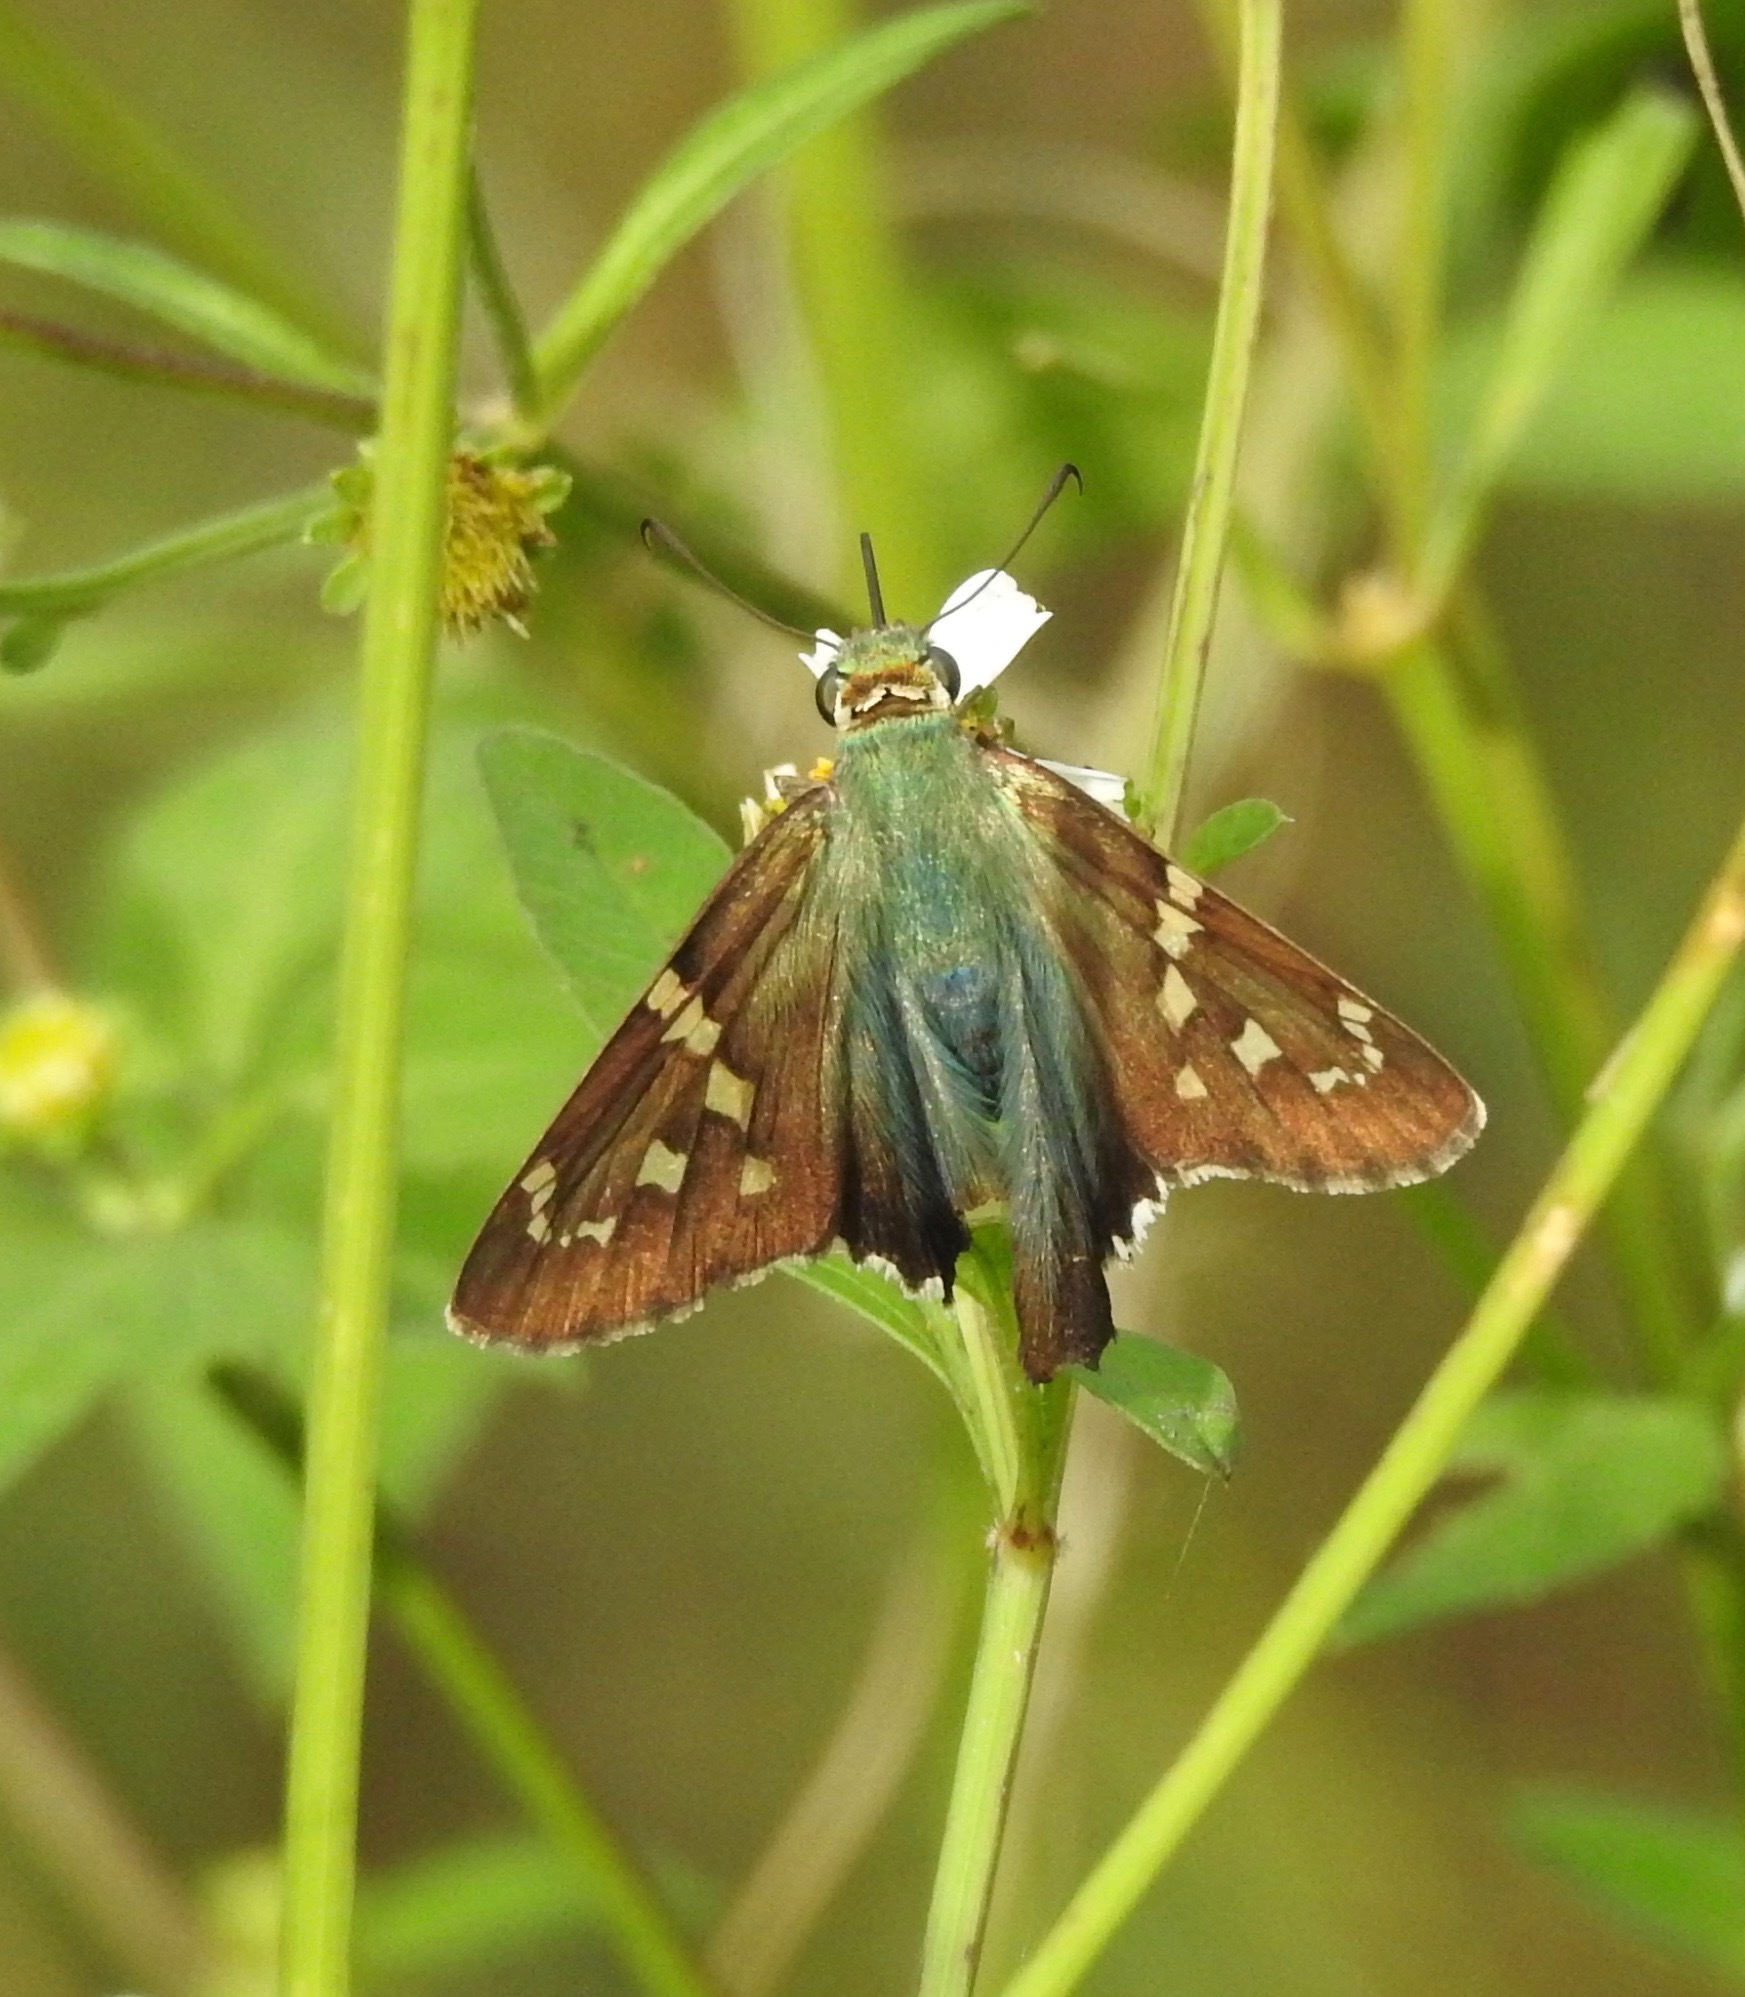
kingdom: Animalia
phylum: Arthropoda
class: Insecta
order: Lepidoptera
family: Hesperiidae
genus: Urbanus
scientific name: Urbanus proteus
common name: Long-tailed skipper
